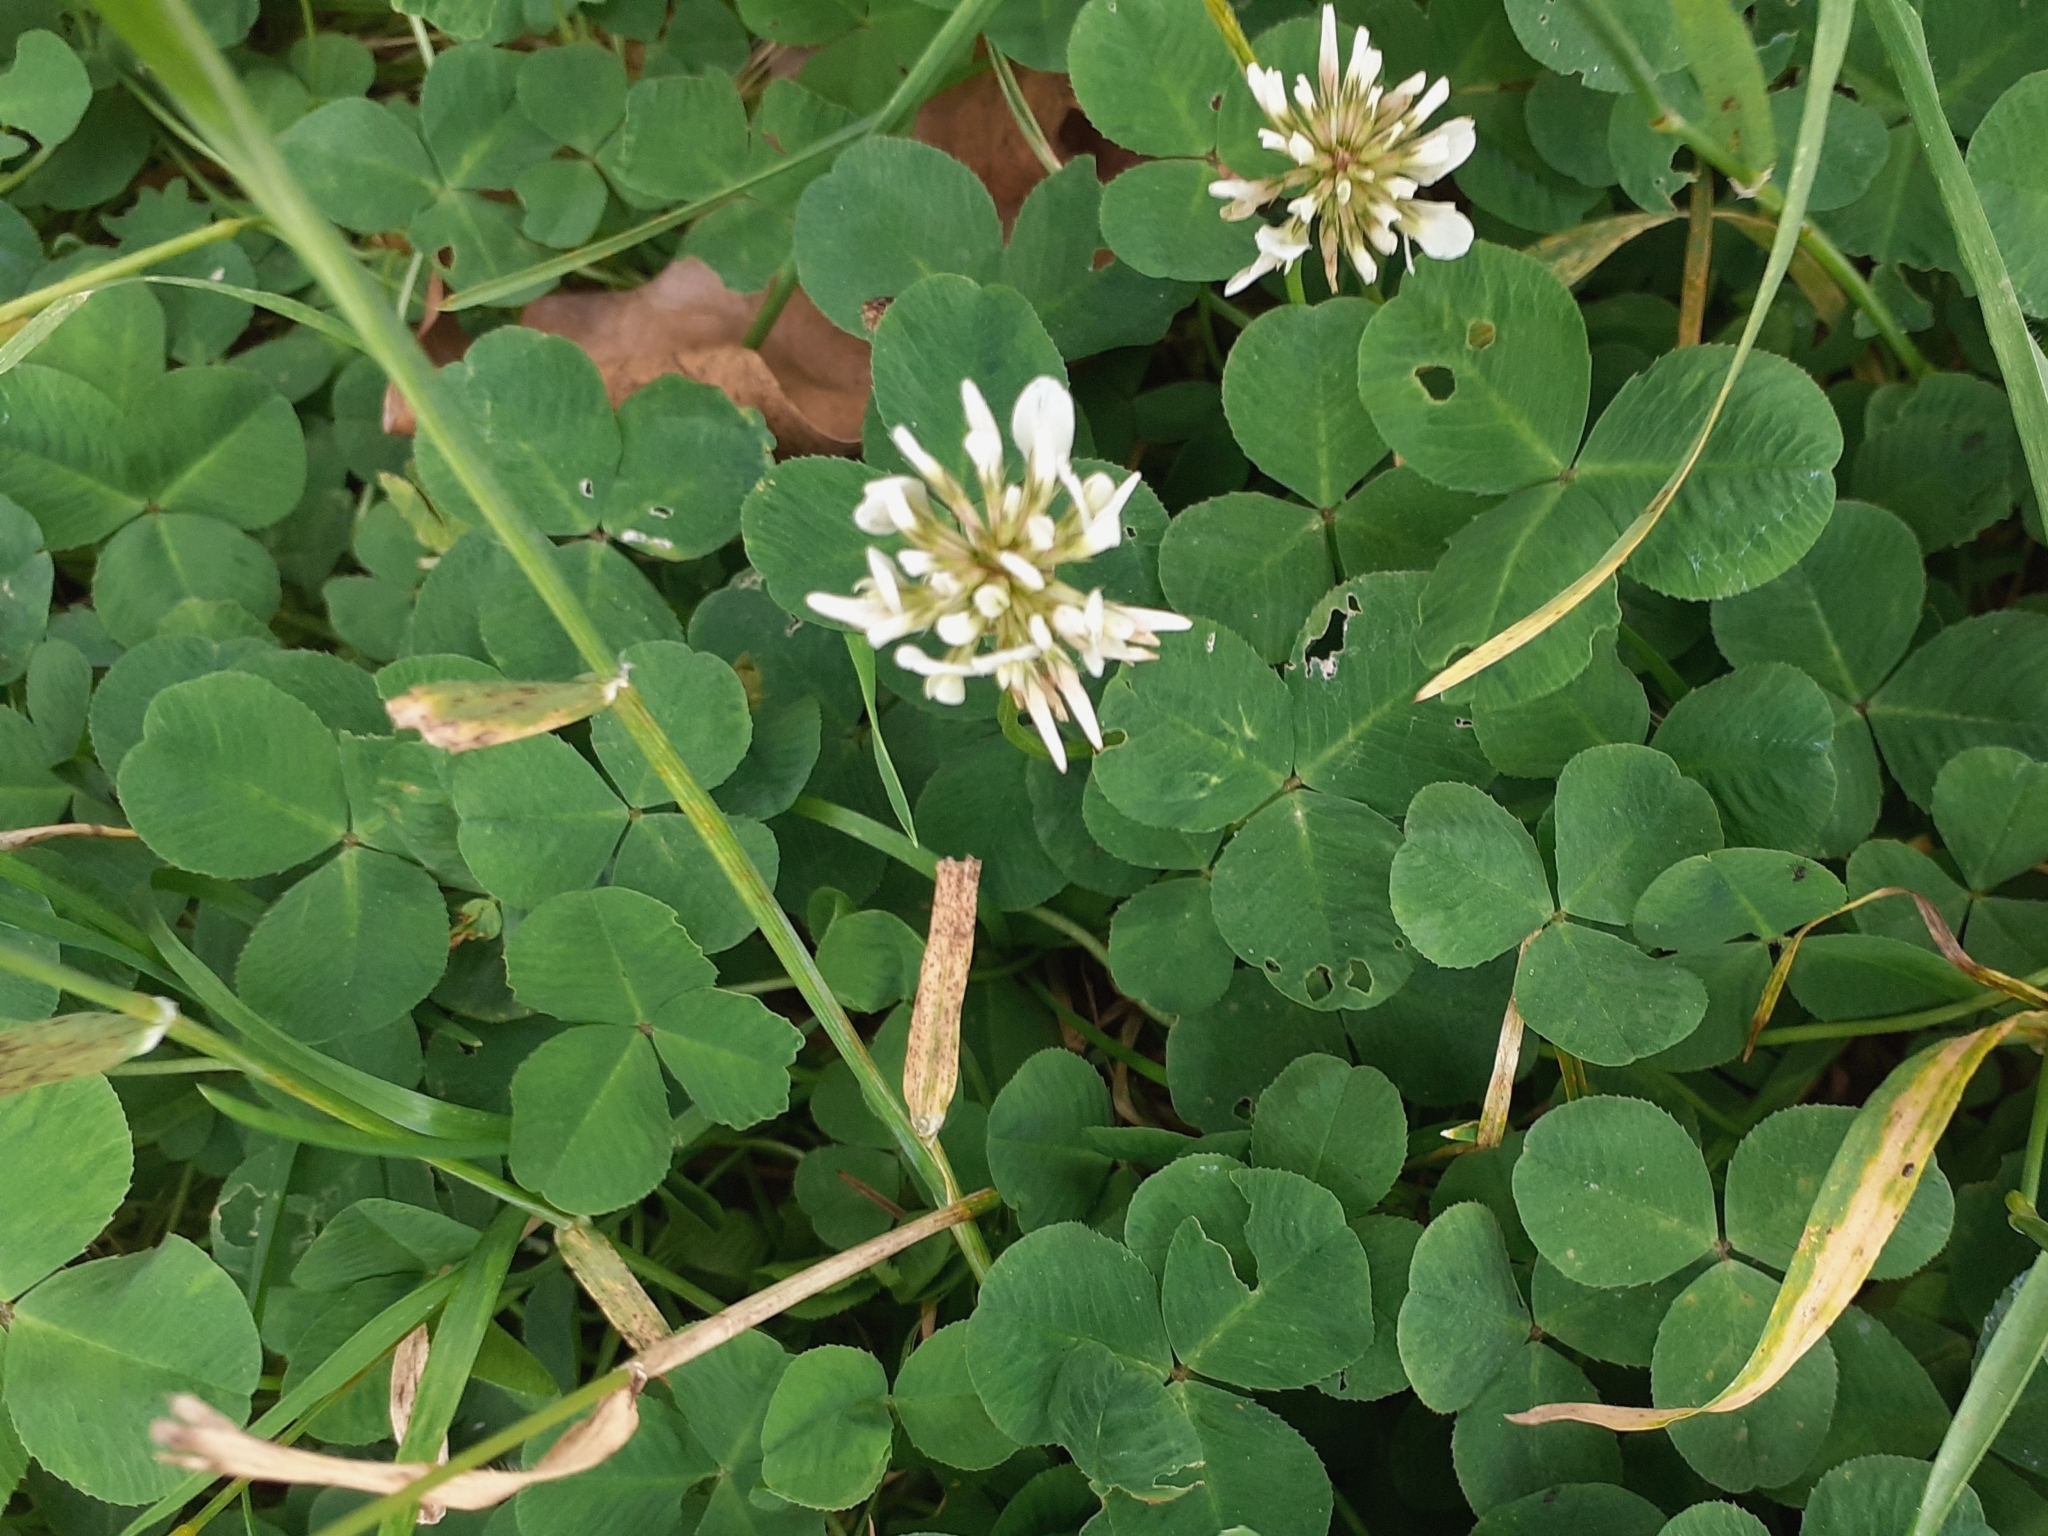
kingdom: Plantae
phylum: Tracheophyta
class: Magnoliopsida
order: Fabales
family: Fabaceae
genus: Trifolium
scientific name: Trifolium repens
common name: White clover
